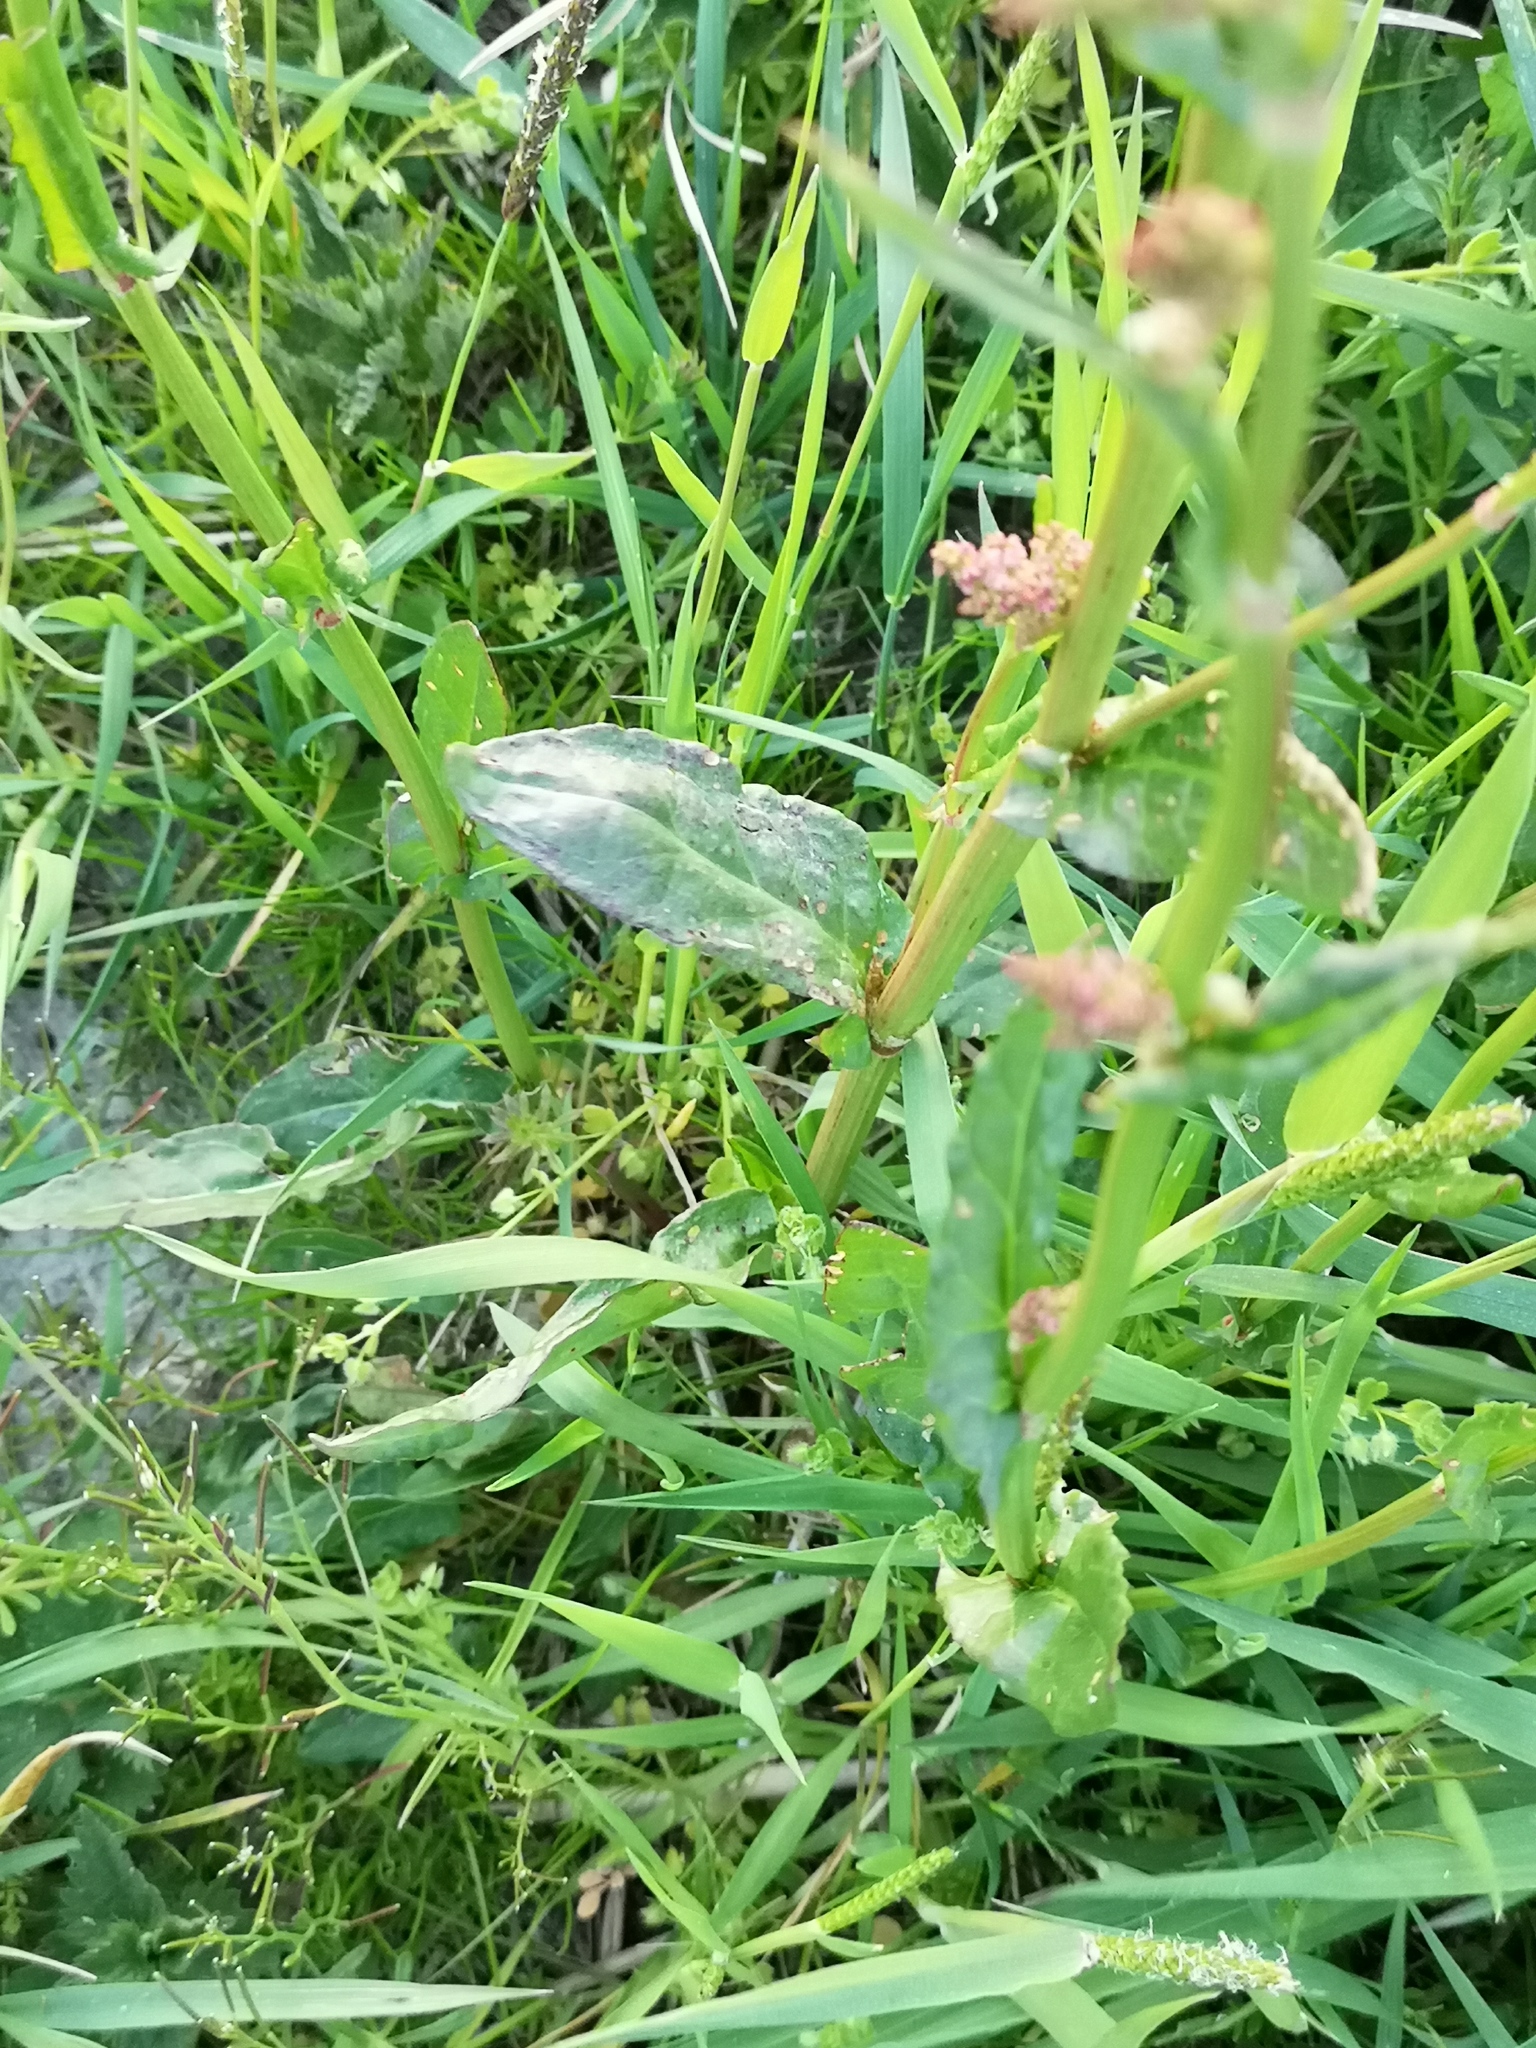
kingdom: Plantae
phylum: Tracheophyta
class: Magnoliopsida
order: Caryophyllales
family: Polygonaceae
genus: Rumex
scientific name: Rumex acetosa
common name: Garden sorrel
